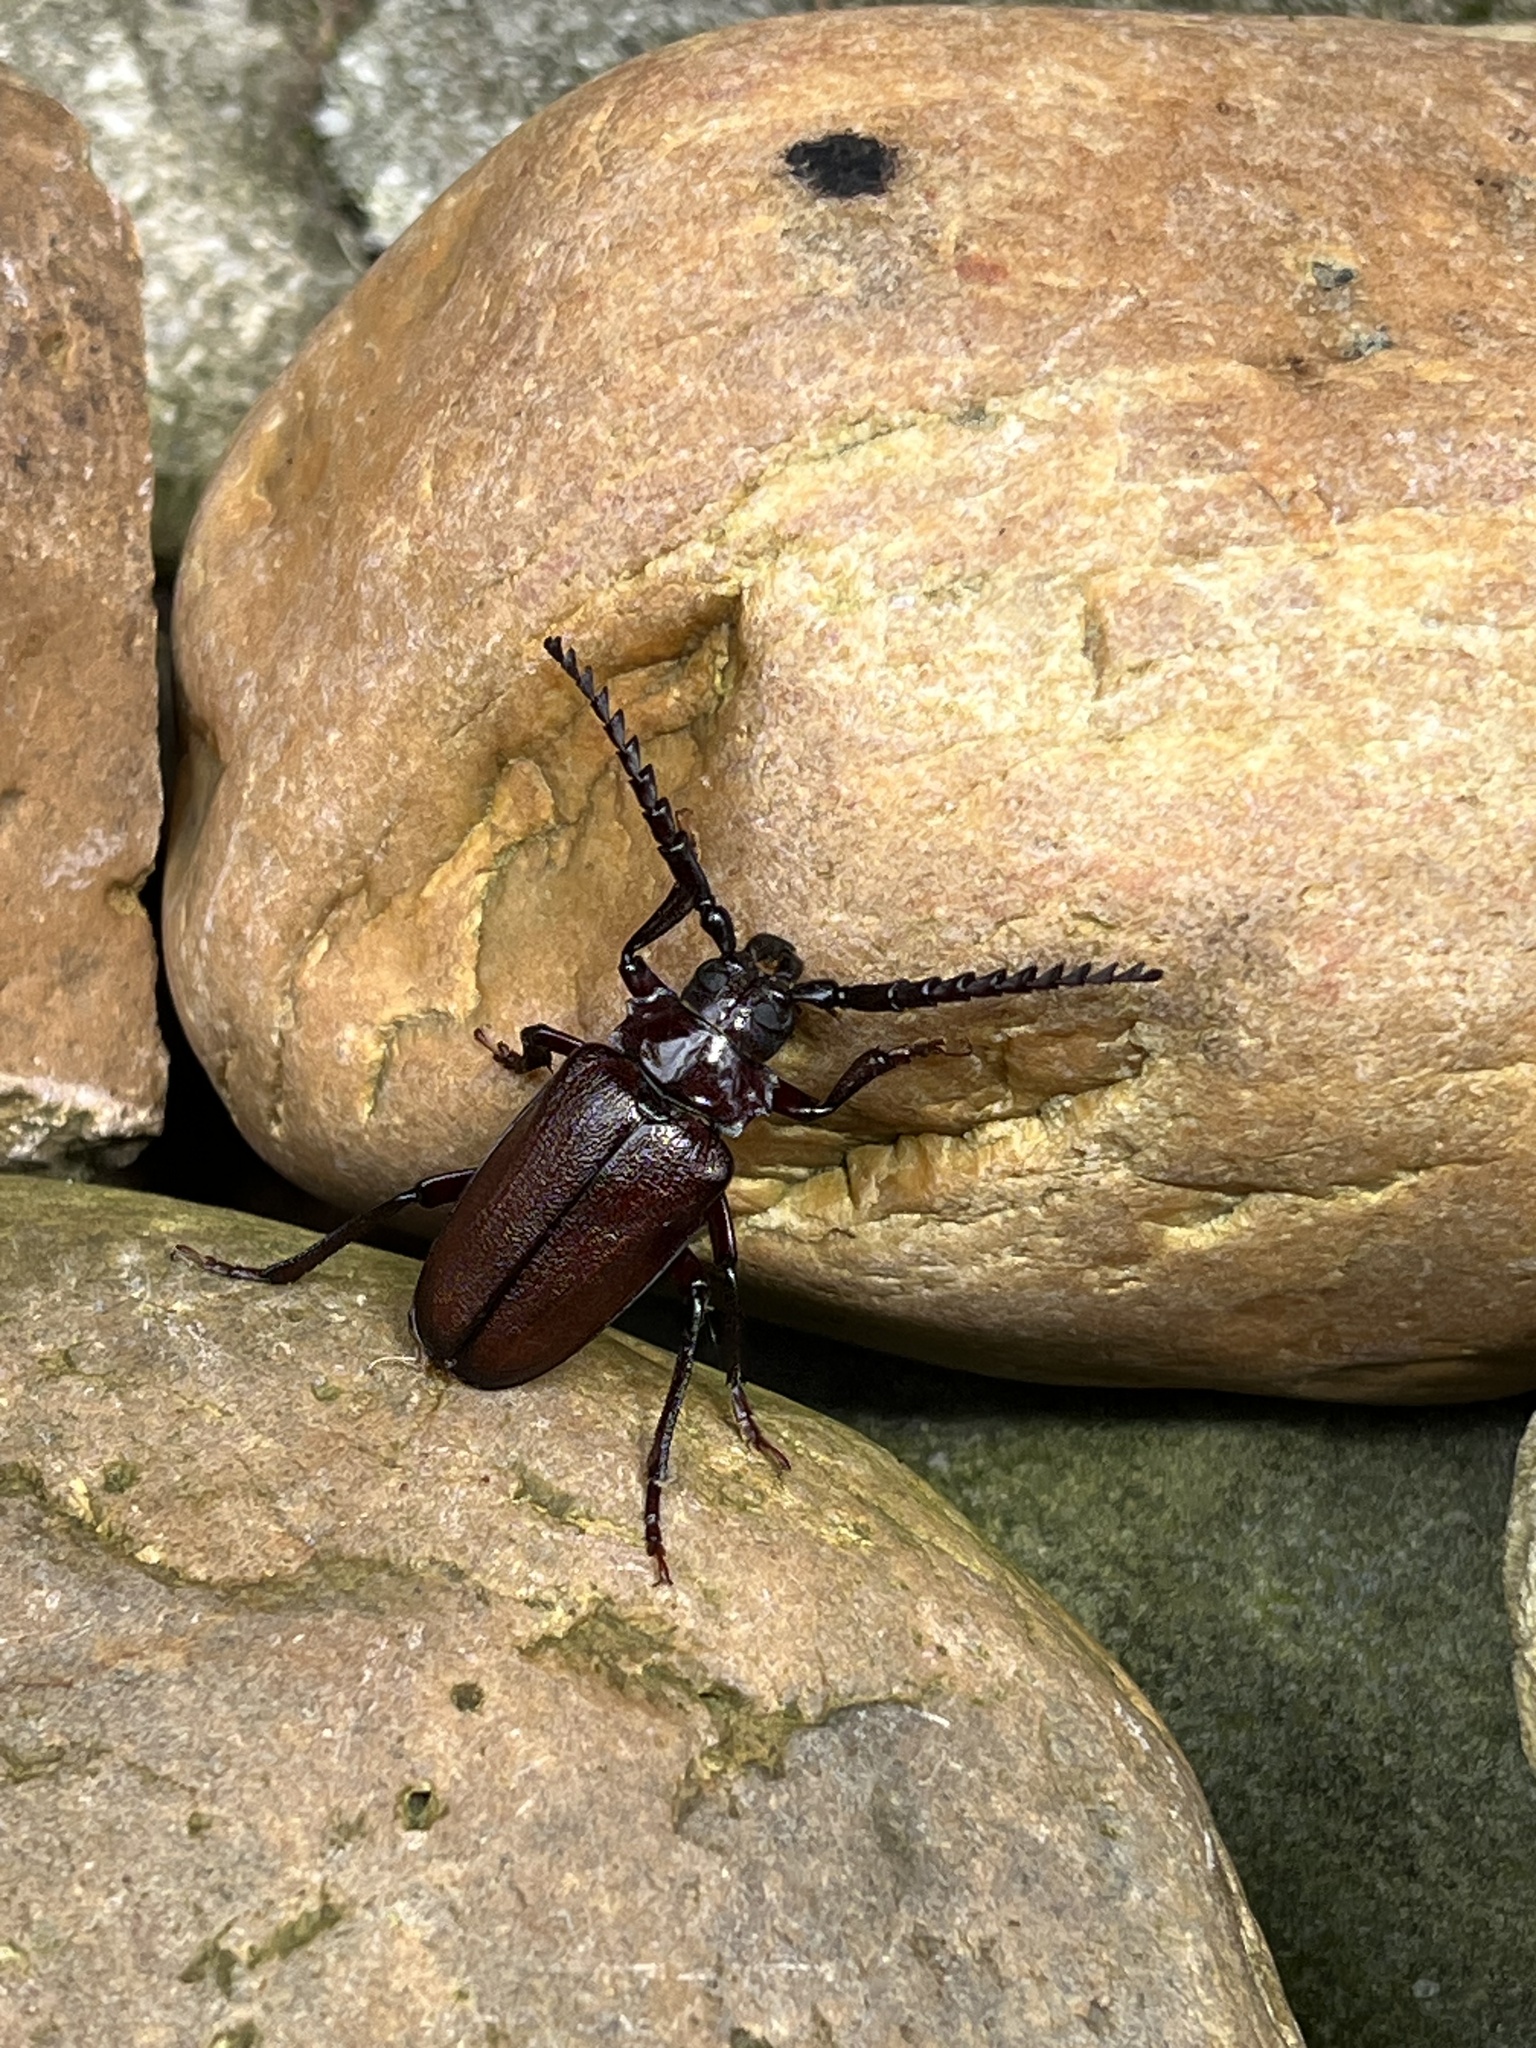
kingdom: Animalia
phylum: Arthropoda
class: Insecta
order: Coleoptera
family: Cerambycidae
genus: Prionus
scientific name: Prionus laticollis
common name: Broad necked prionus
